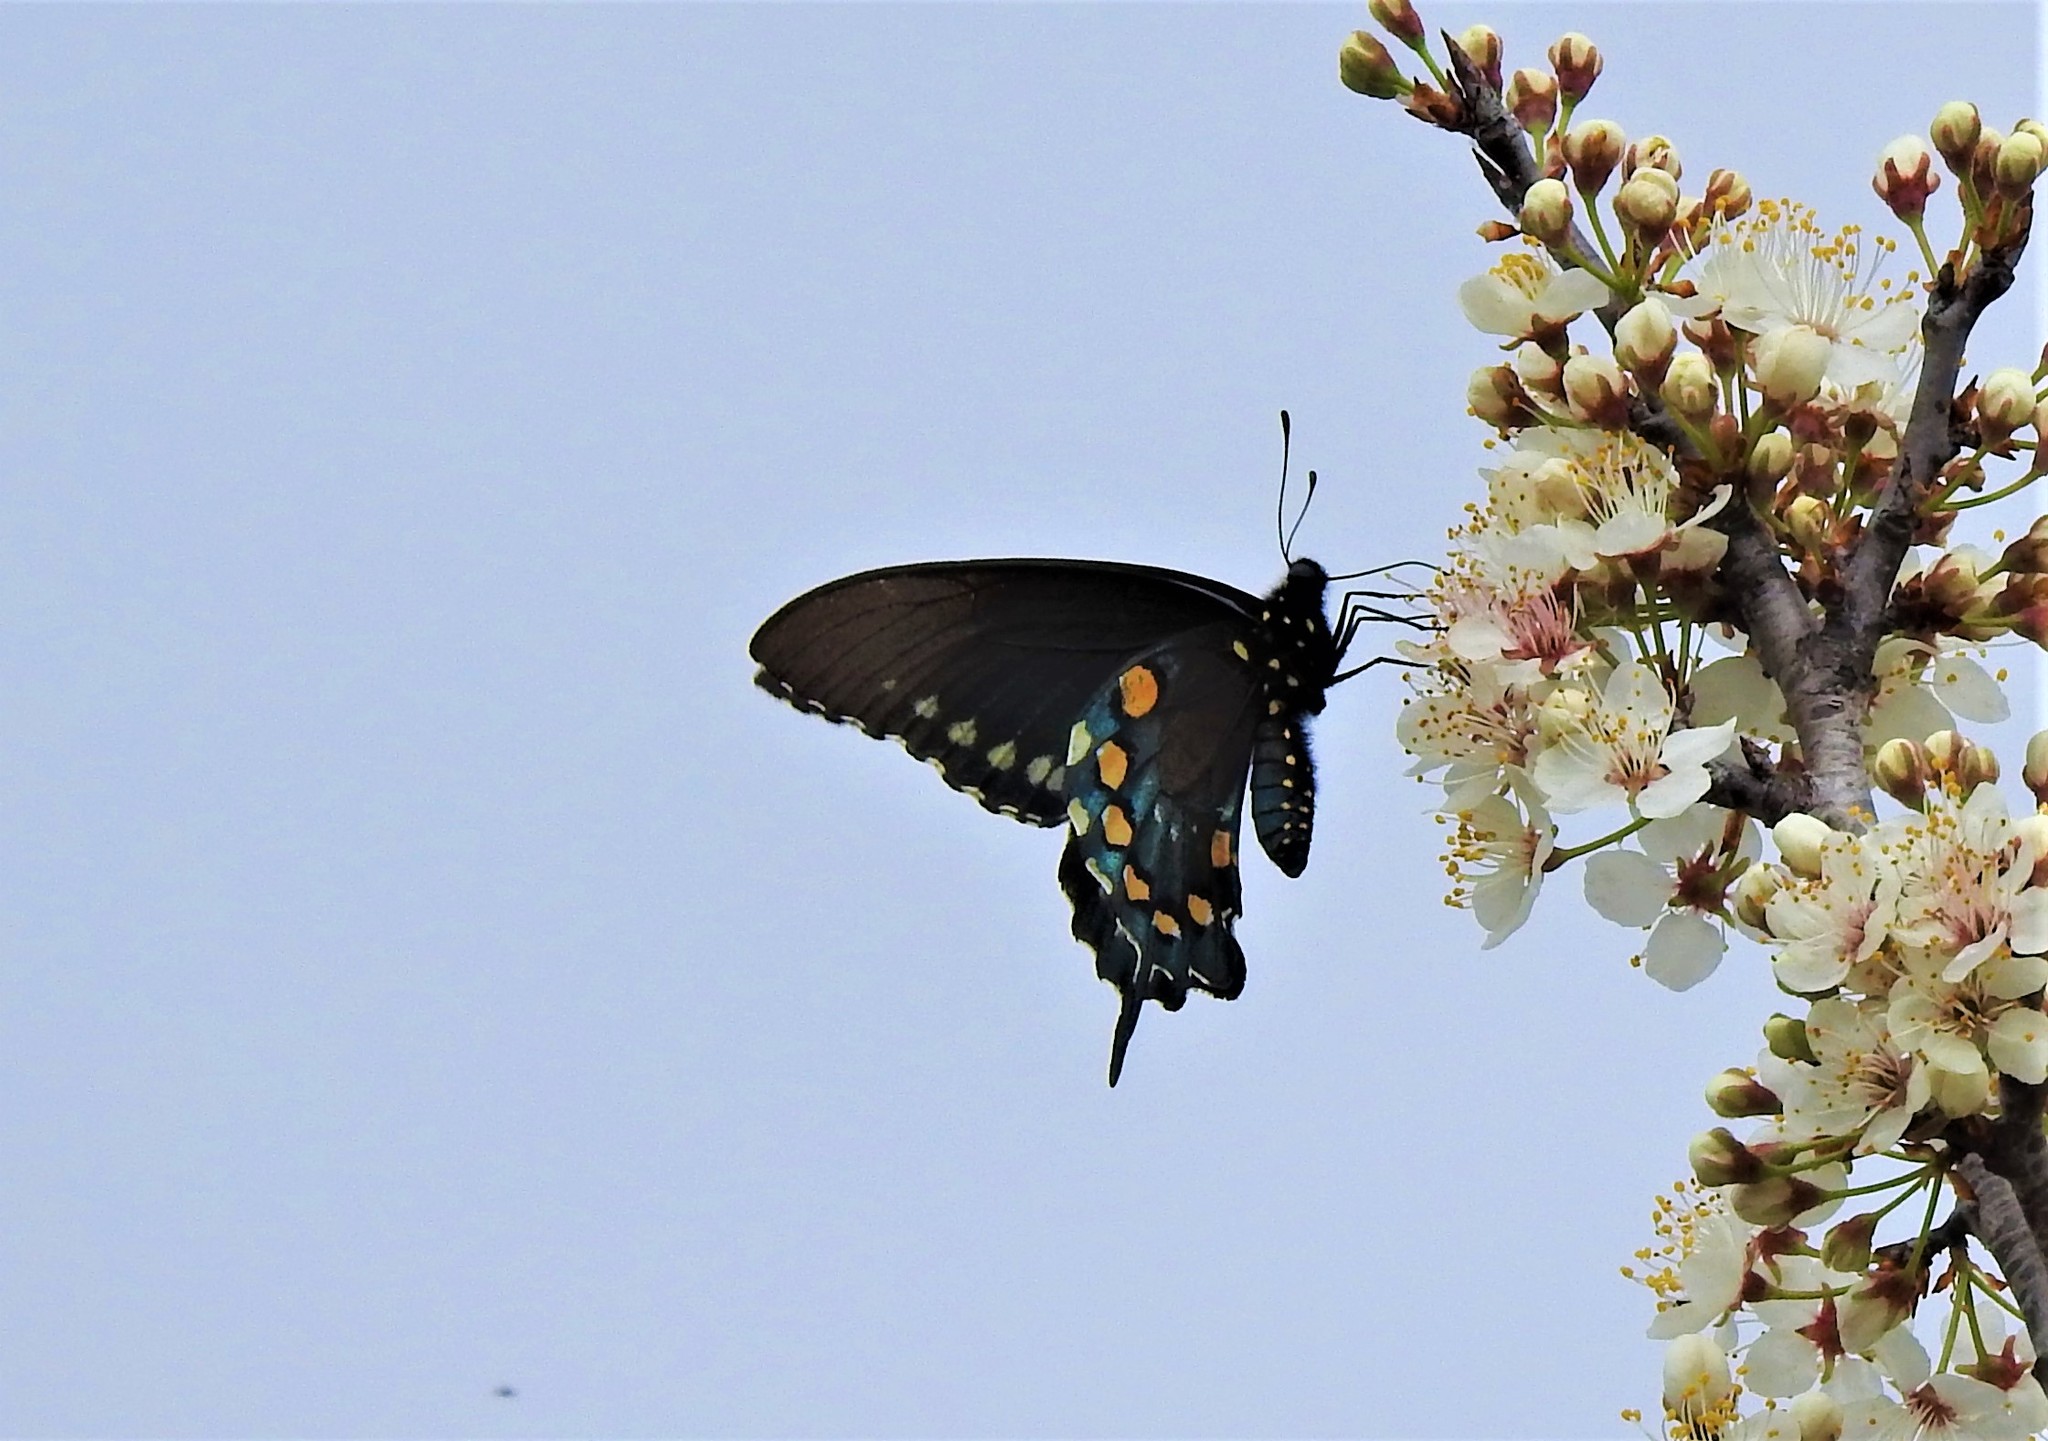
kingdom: Animalia
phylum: Arthropoda
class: Insecta
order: Lepidoptera
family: Papilionidae
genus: Battus
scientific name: Battus philenor
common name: Pipevine swallowtail
